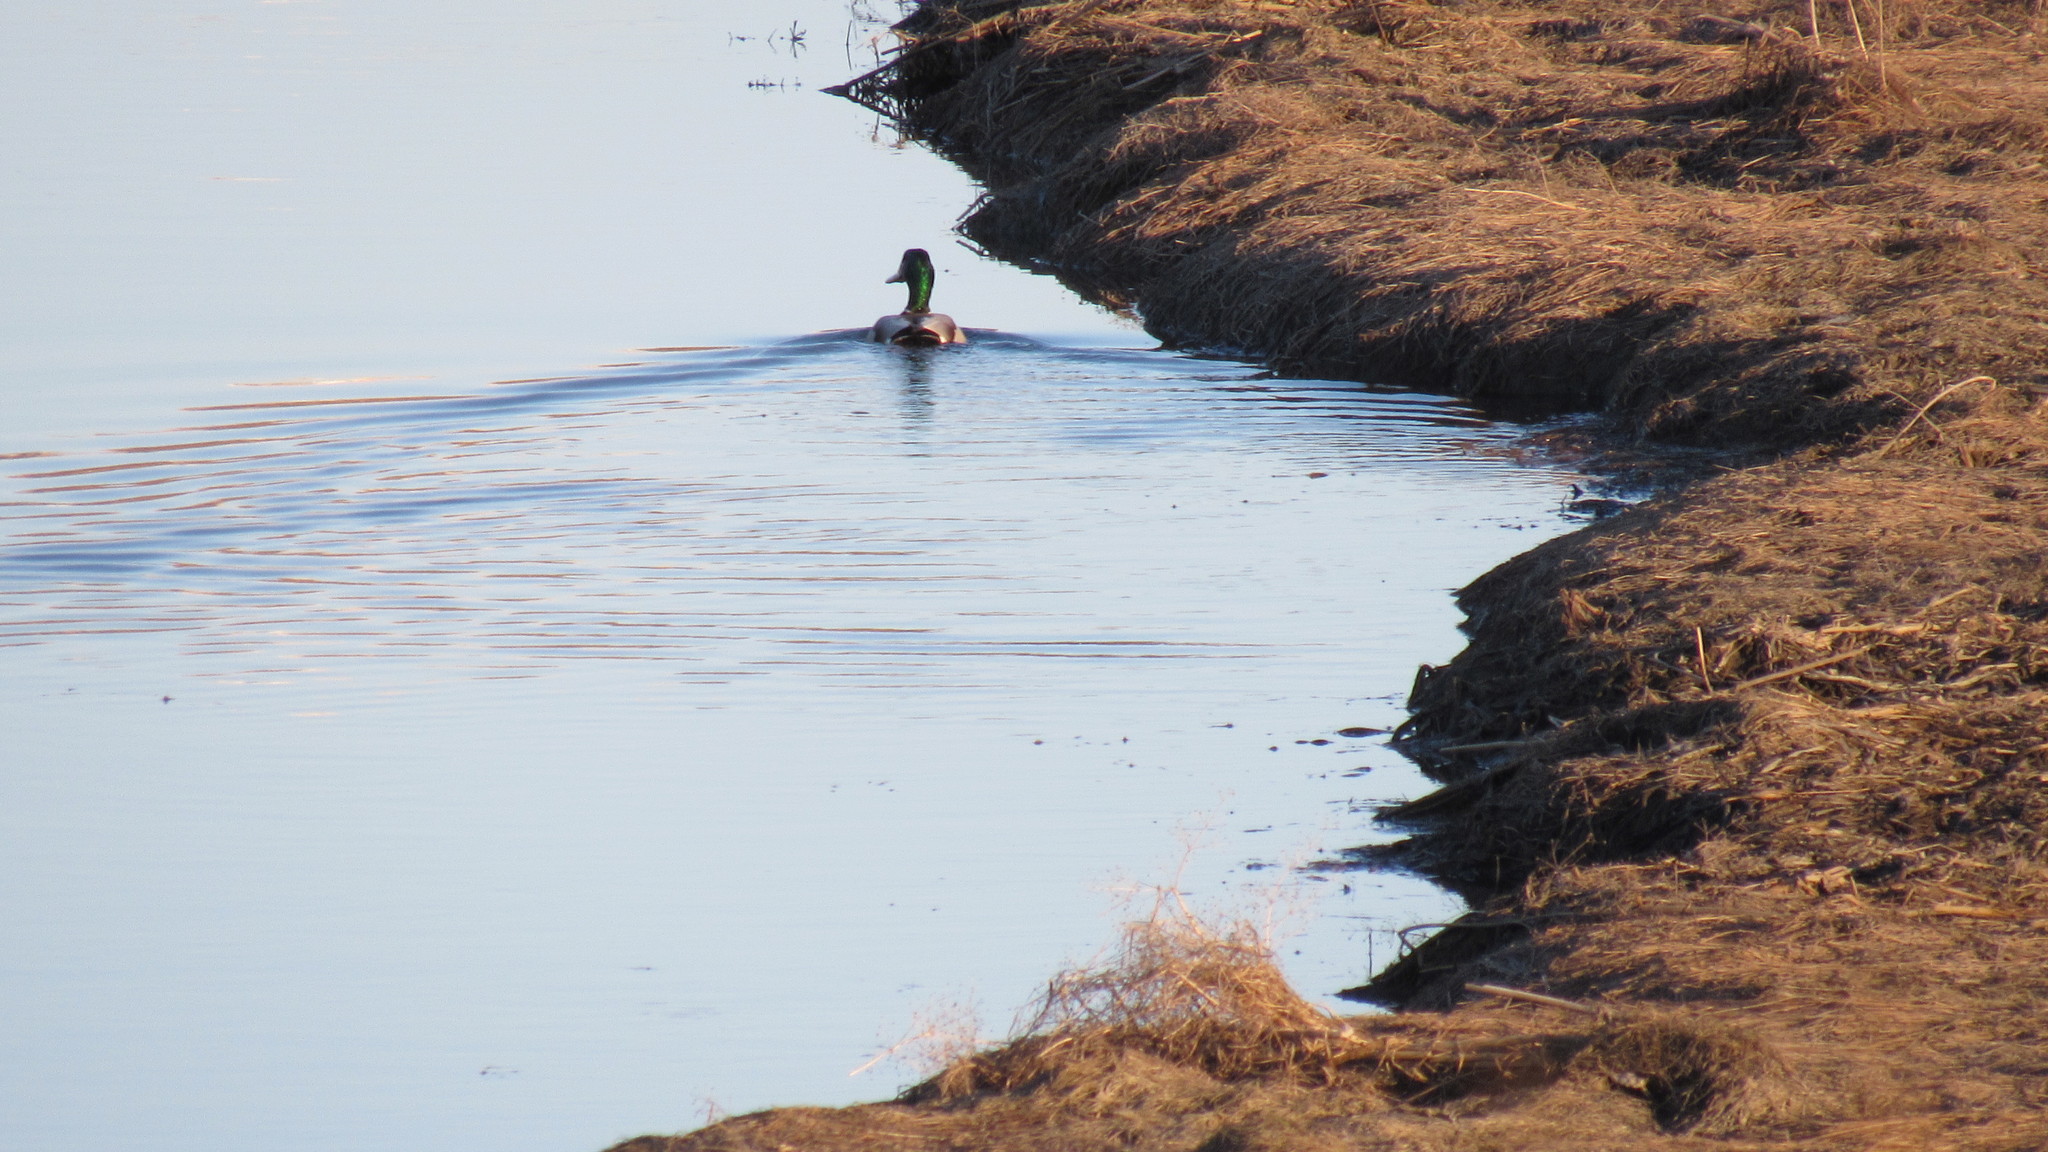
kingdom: Animalia
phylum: Chordata
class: Aves
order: Anseriformes
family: Anatidae
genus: Anas
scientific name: Anas platyrhynchos
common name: Mallard
